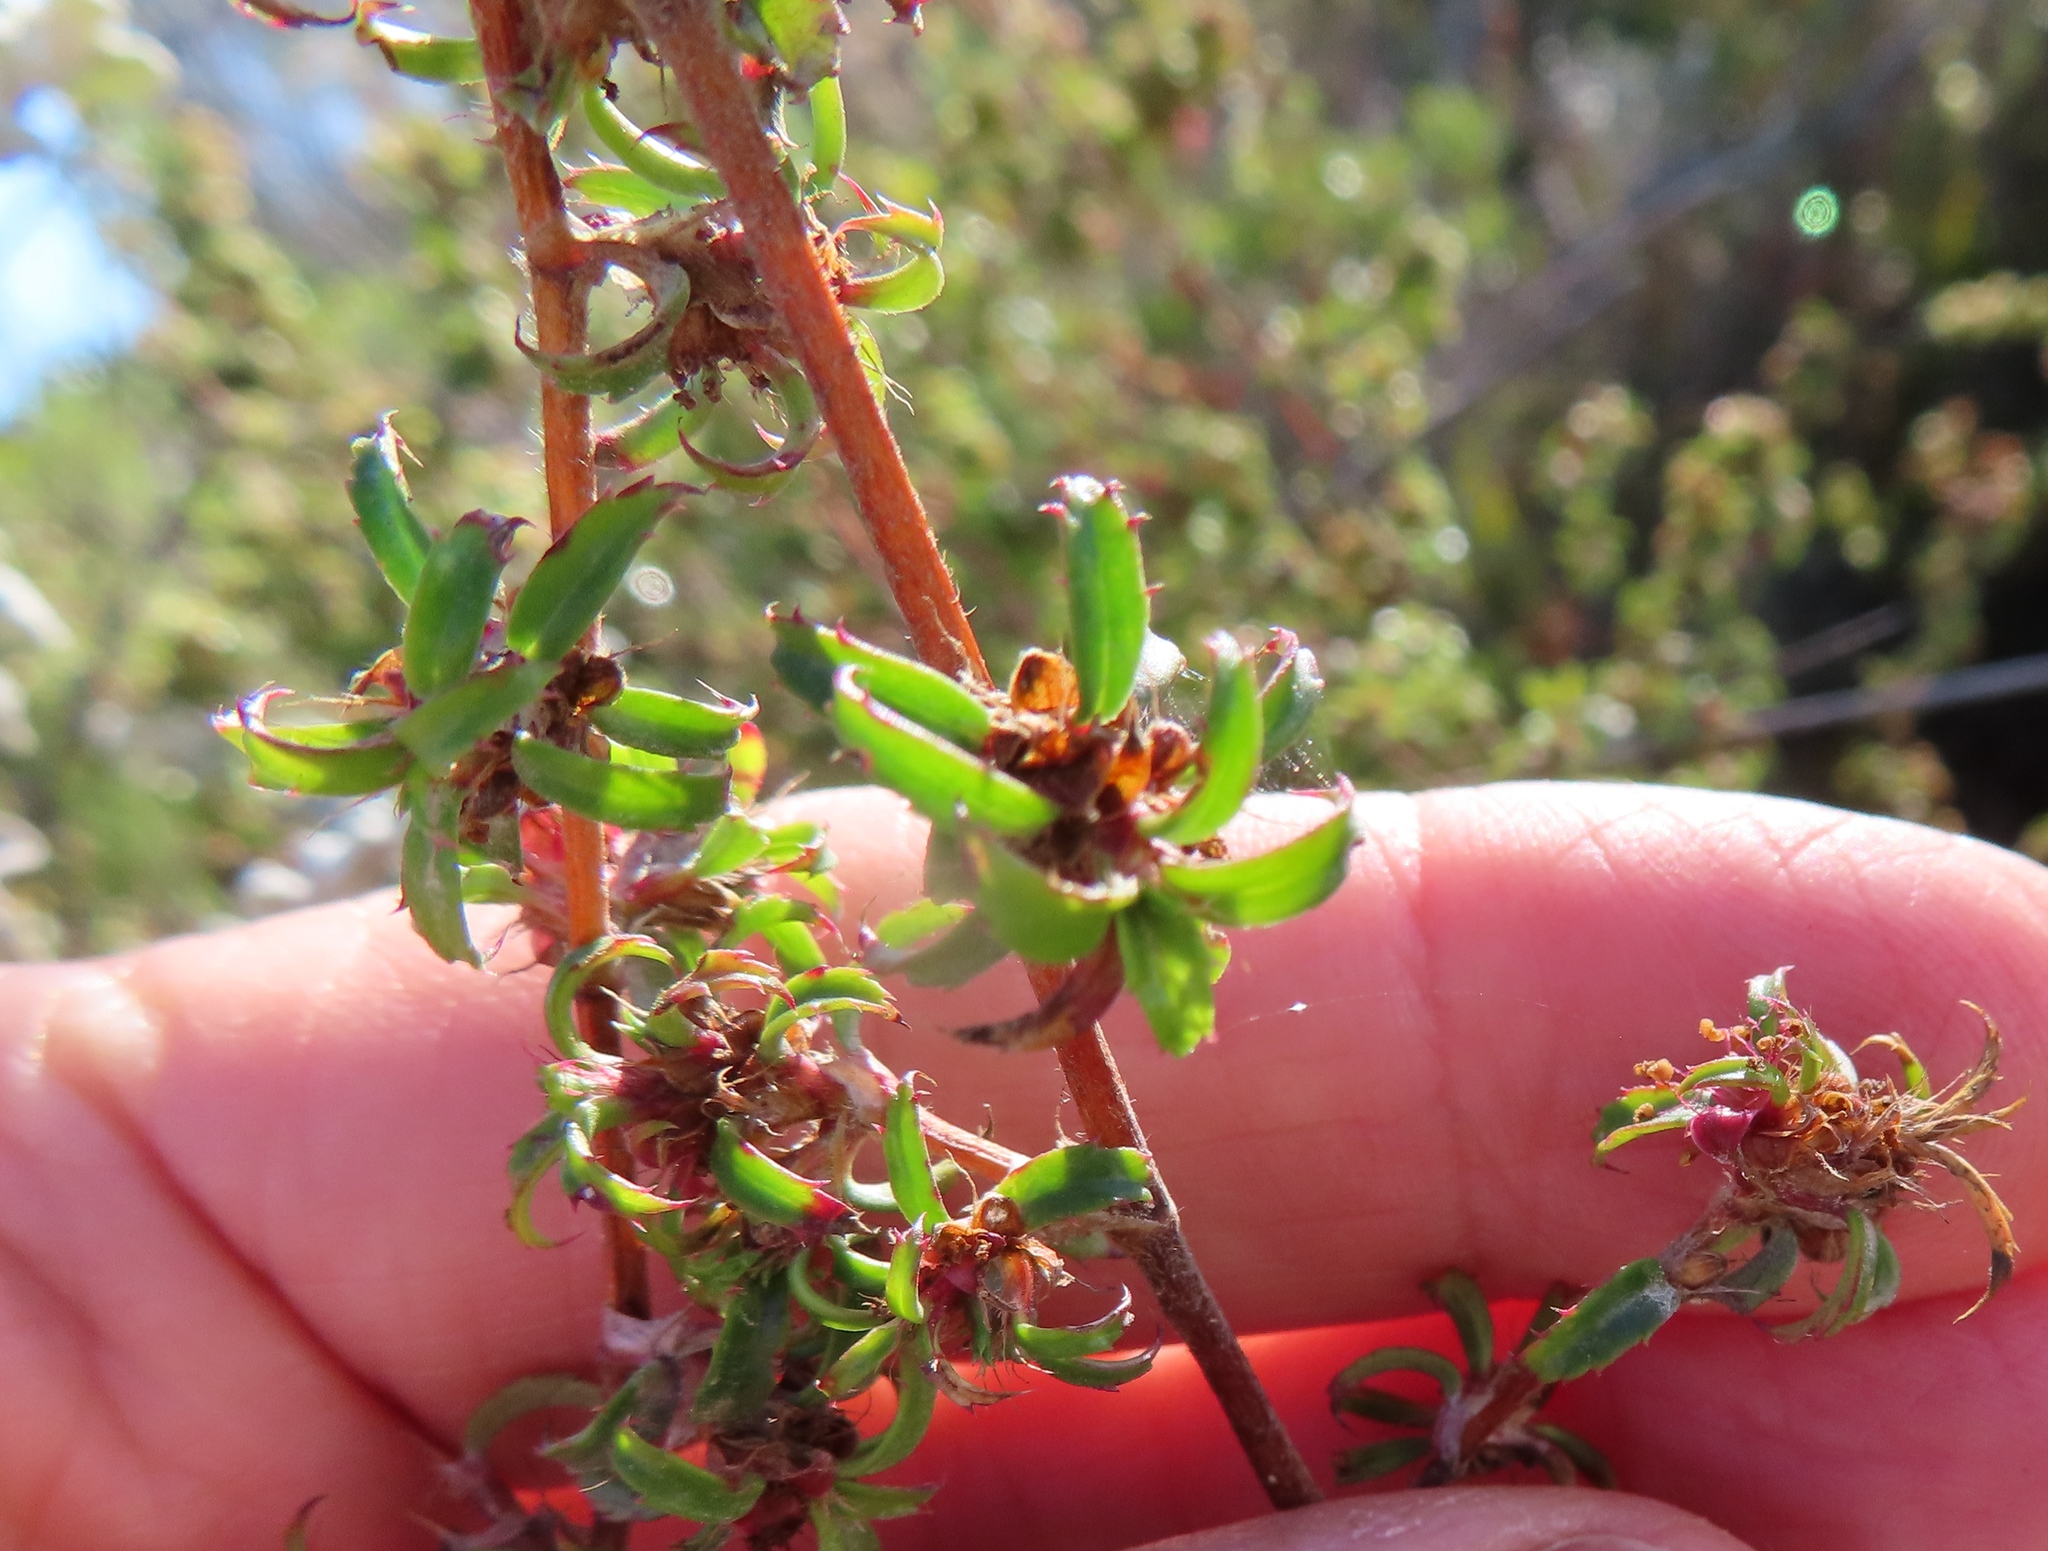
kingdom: Plantae
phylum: Tracheophyta
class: Magnoliopsida
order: Rosales
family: Rosaceae
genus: Cliffortia
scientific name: Cliffortia ferruginea
